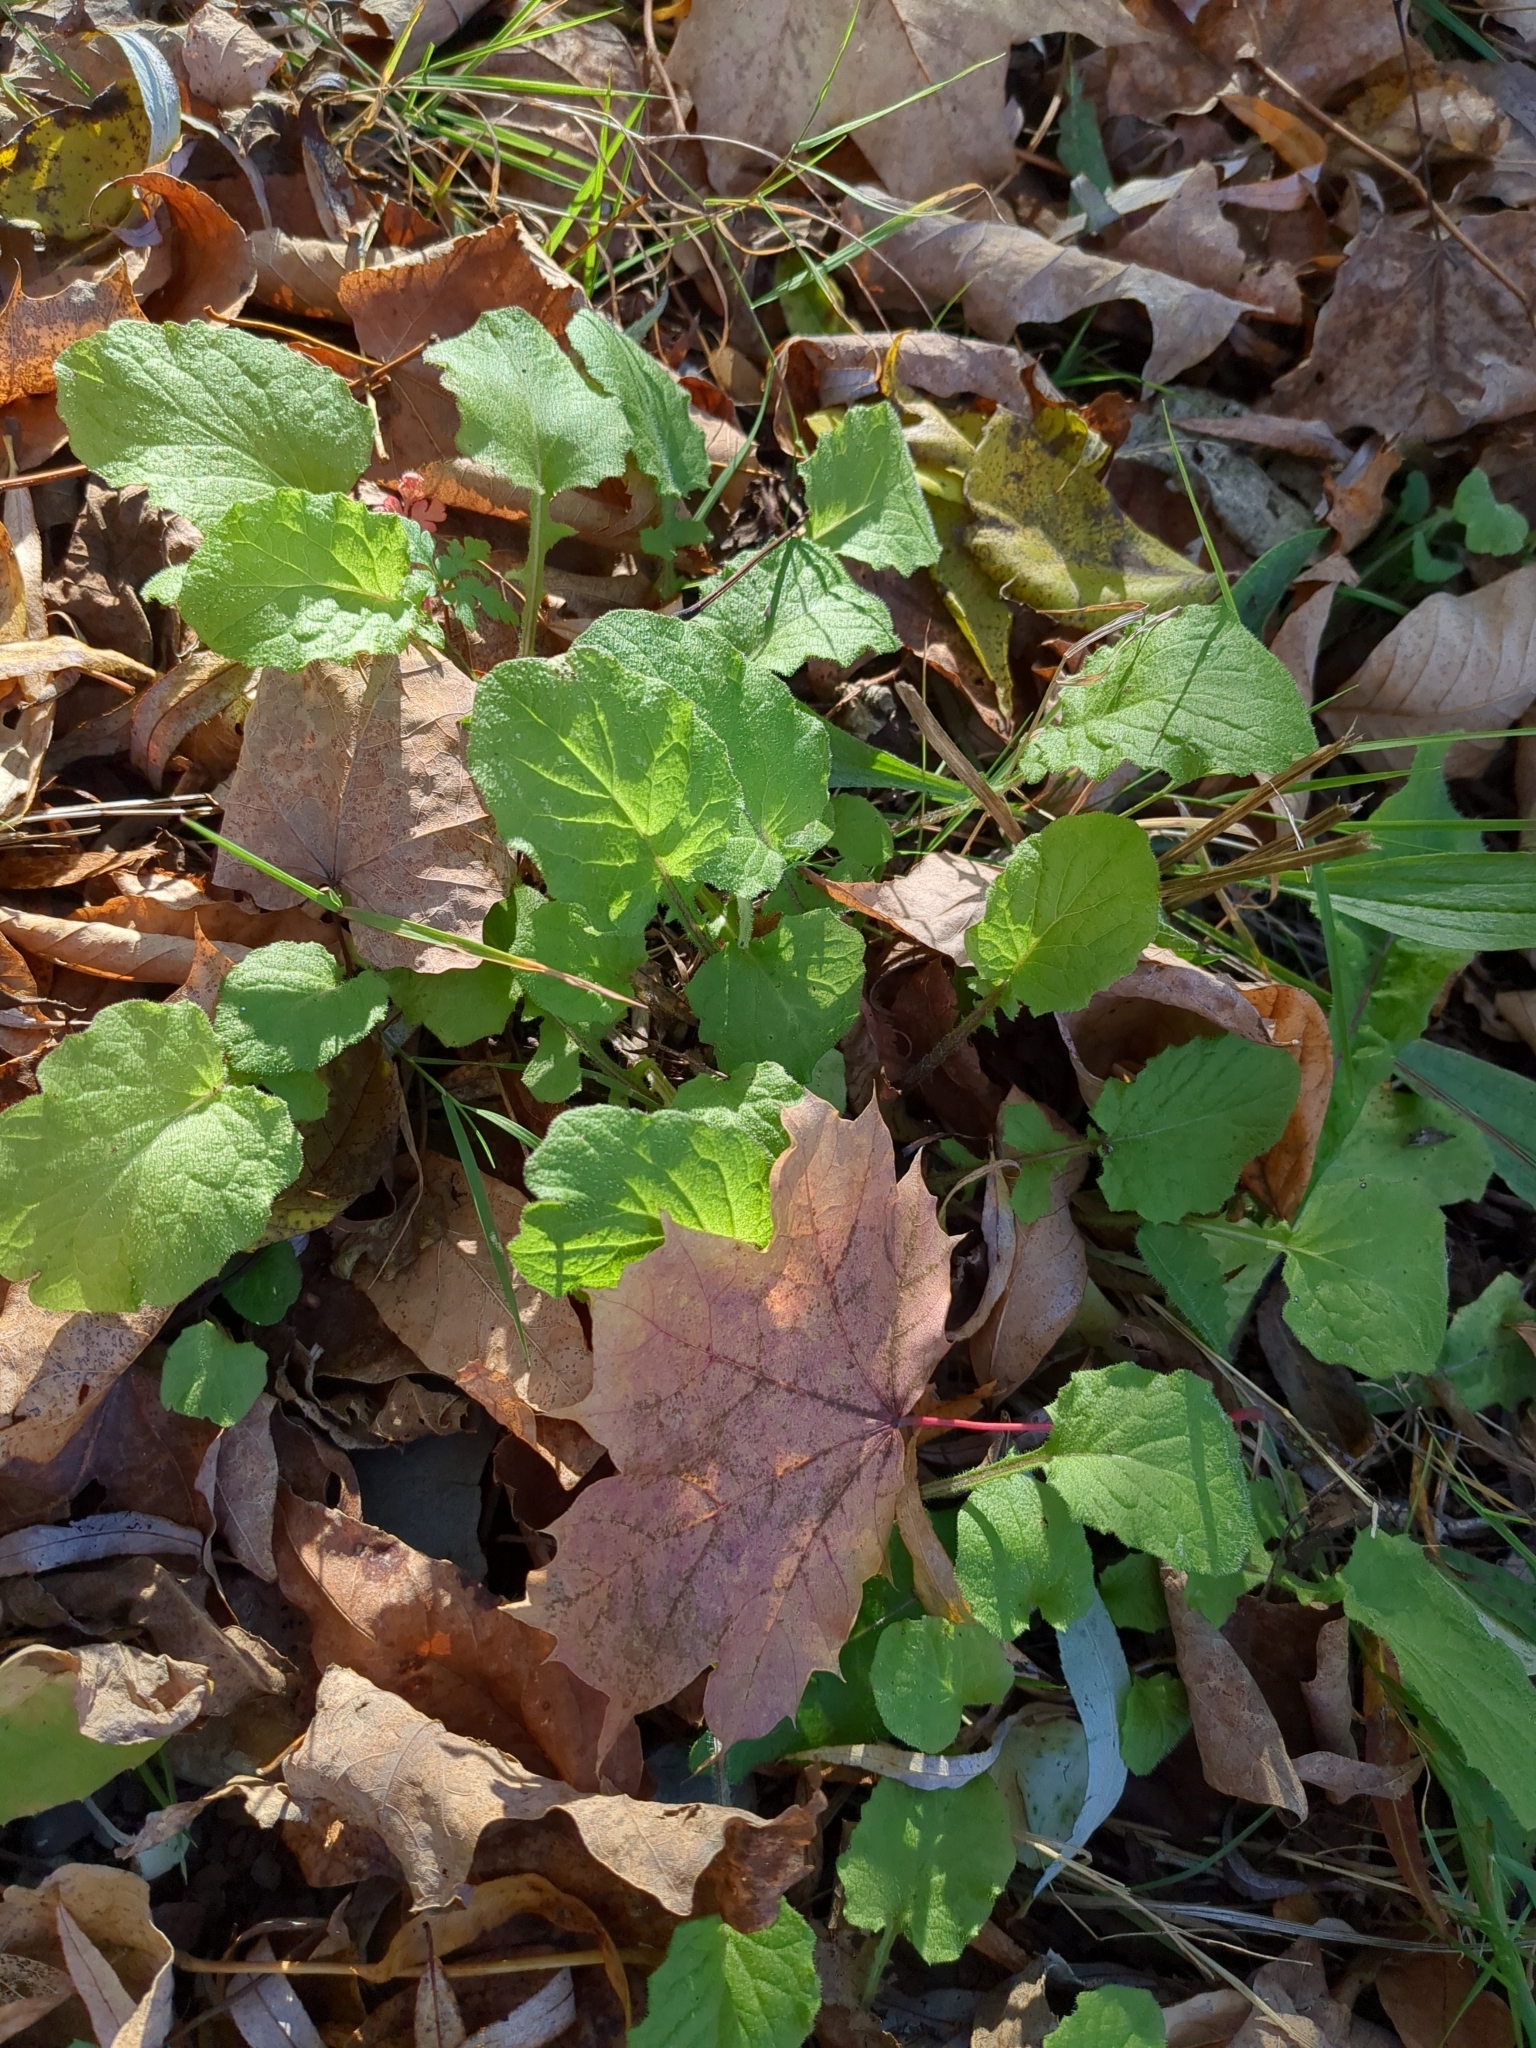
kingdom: Plantae
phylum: Tracheophyta
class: Magnoliopsida
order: Asterales
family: Asteraceae
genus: Lapsana
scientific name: Lapsana communis
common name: Nipplewort
